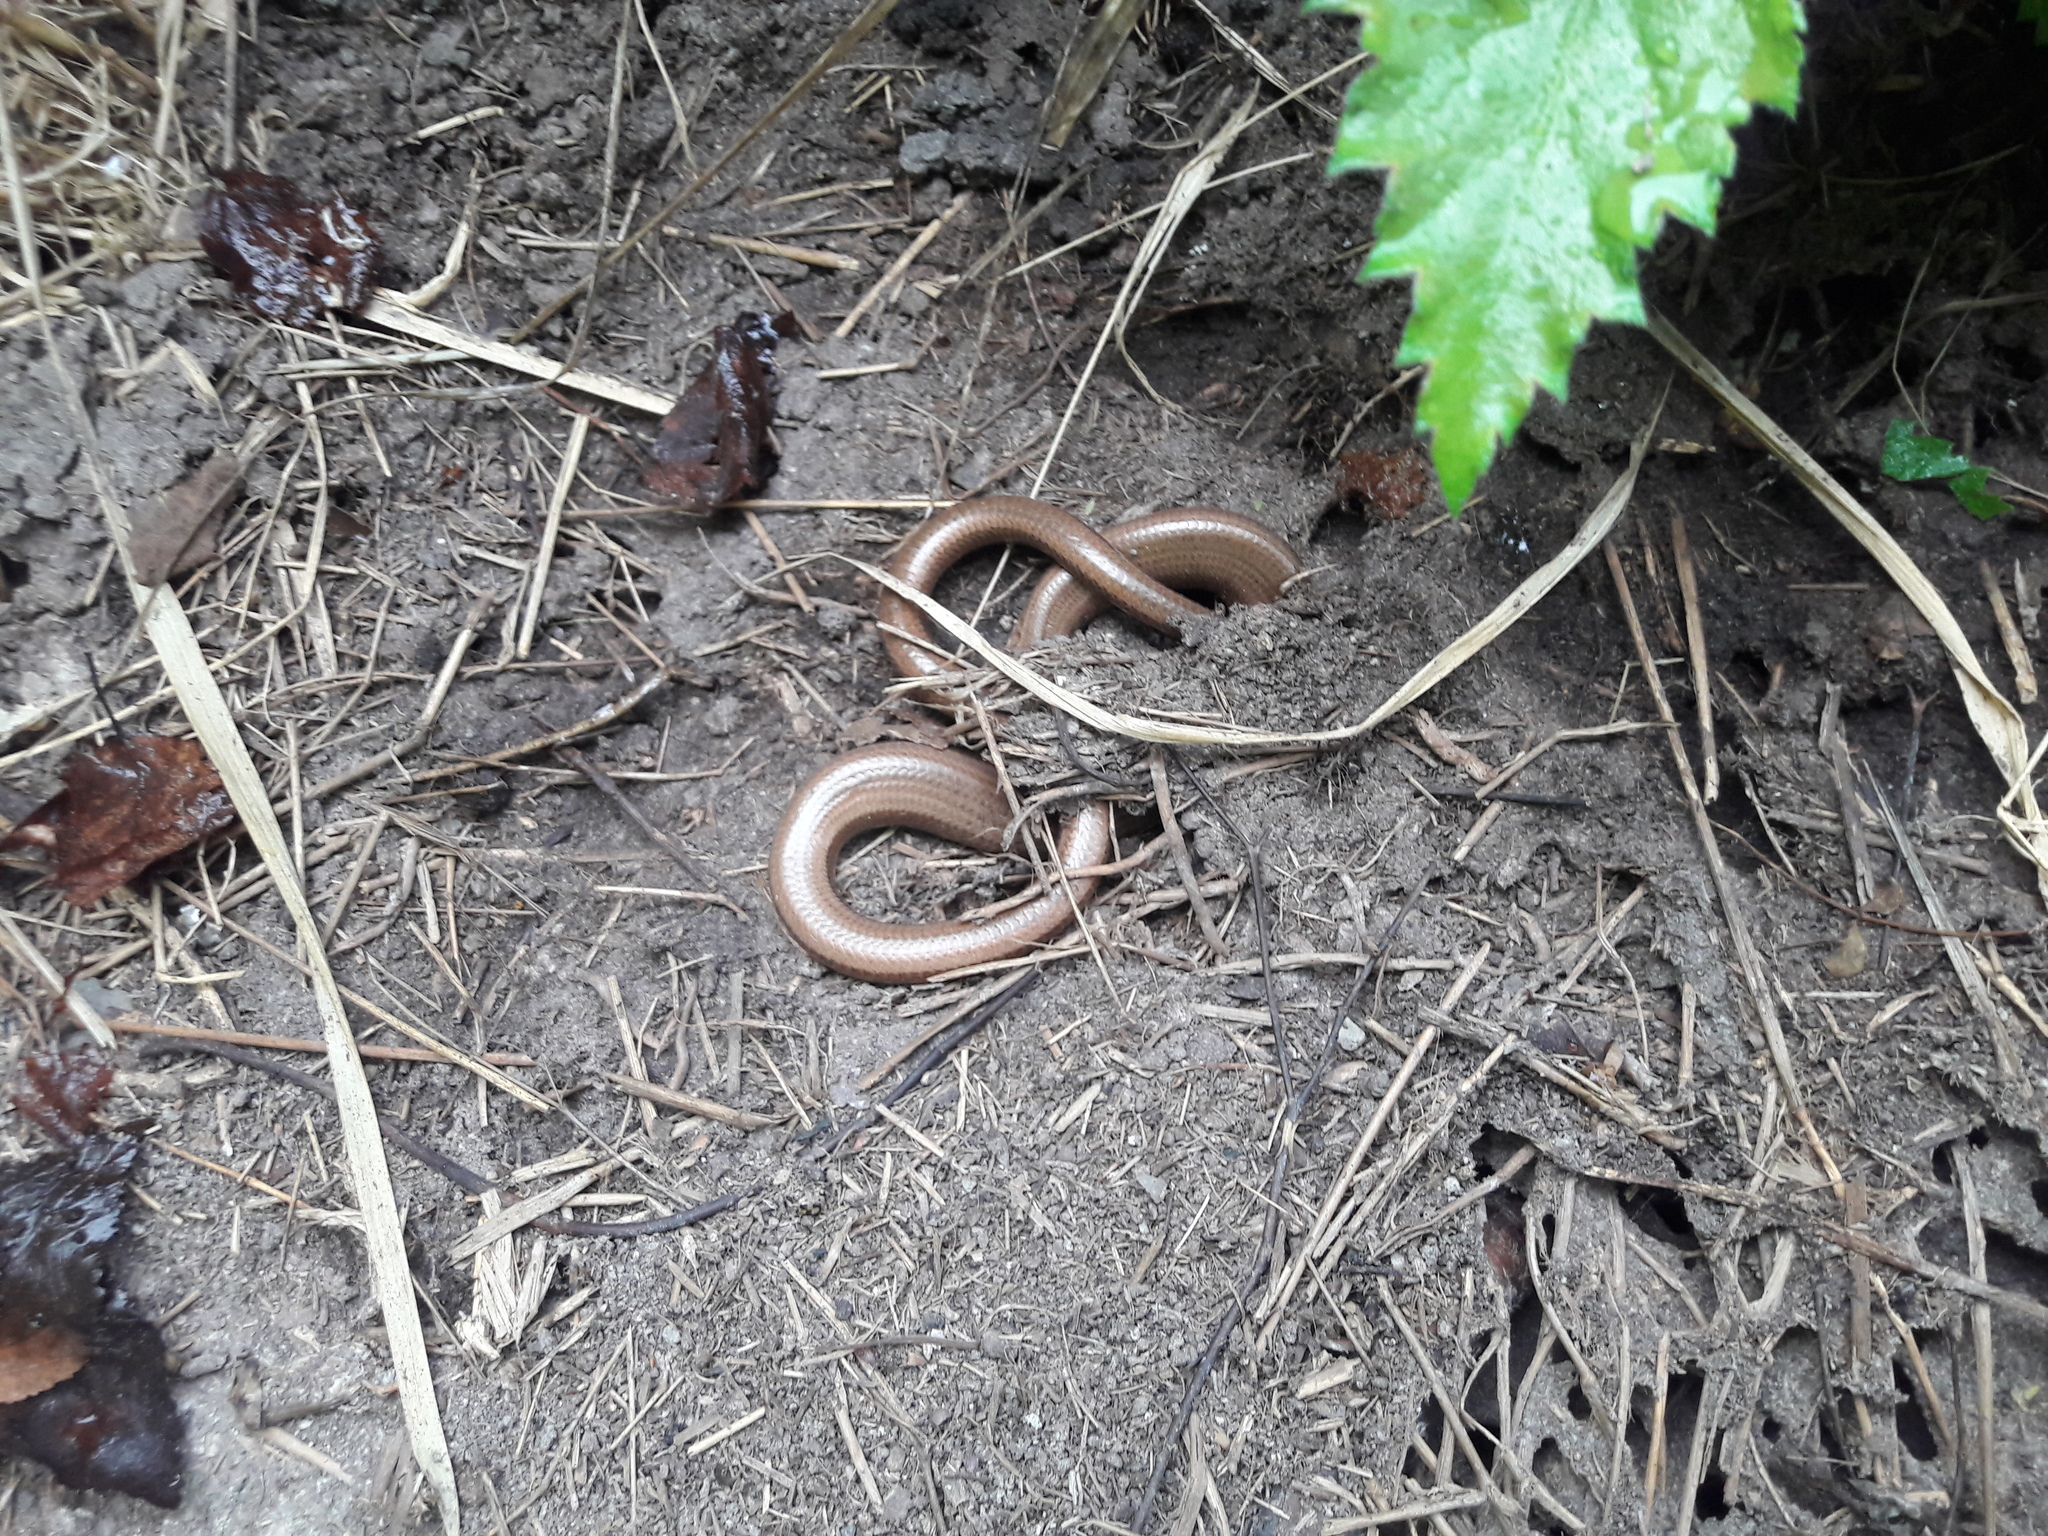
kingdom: Animalia
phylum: Chordata
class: Squamata
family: Anguidae
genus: Anguis
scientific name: Anguis fragilis
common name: Slow worm
